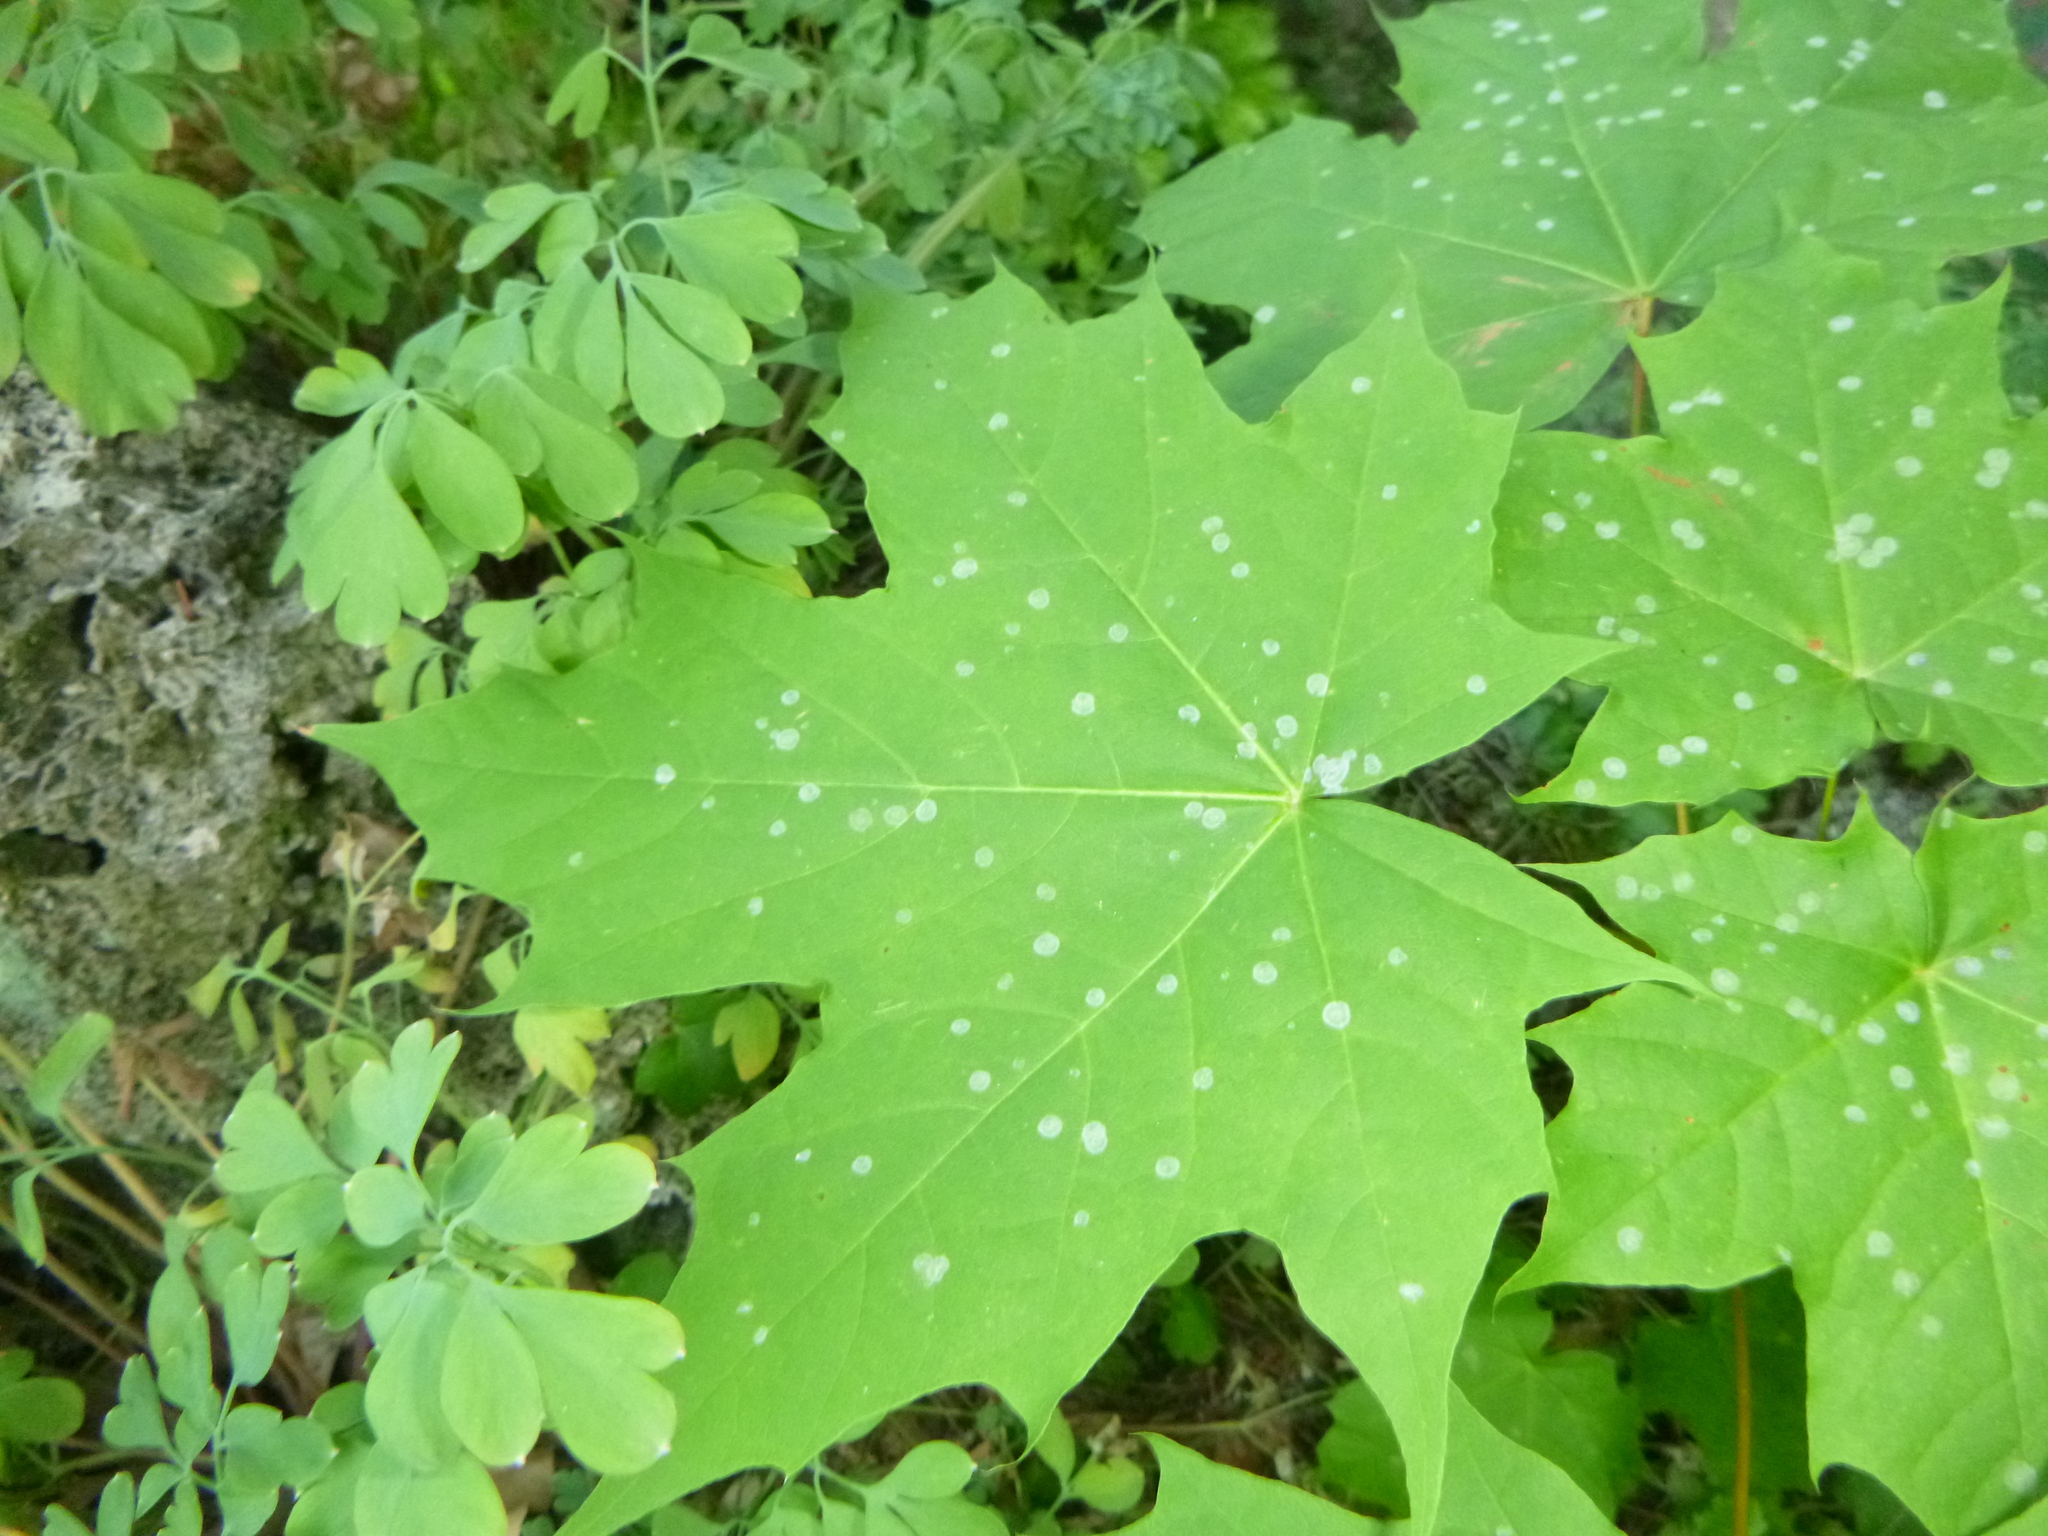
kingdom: Plantae
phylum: Tracheophyta
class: Magnoliopsida
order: Sapindales
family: Sapindaceae
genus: Acer
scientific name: Acer platanoides
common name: Norway maple
